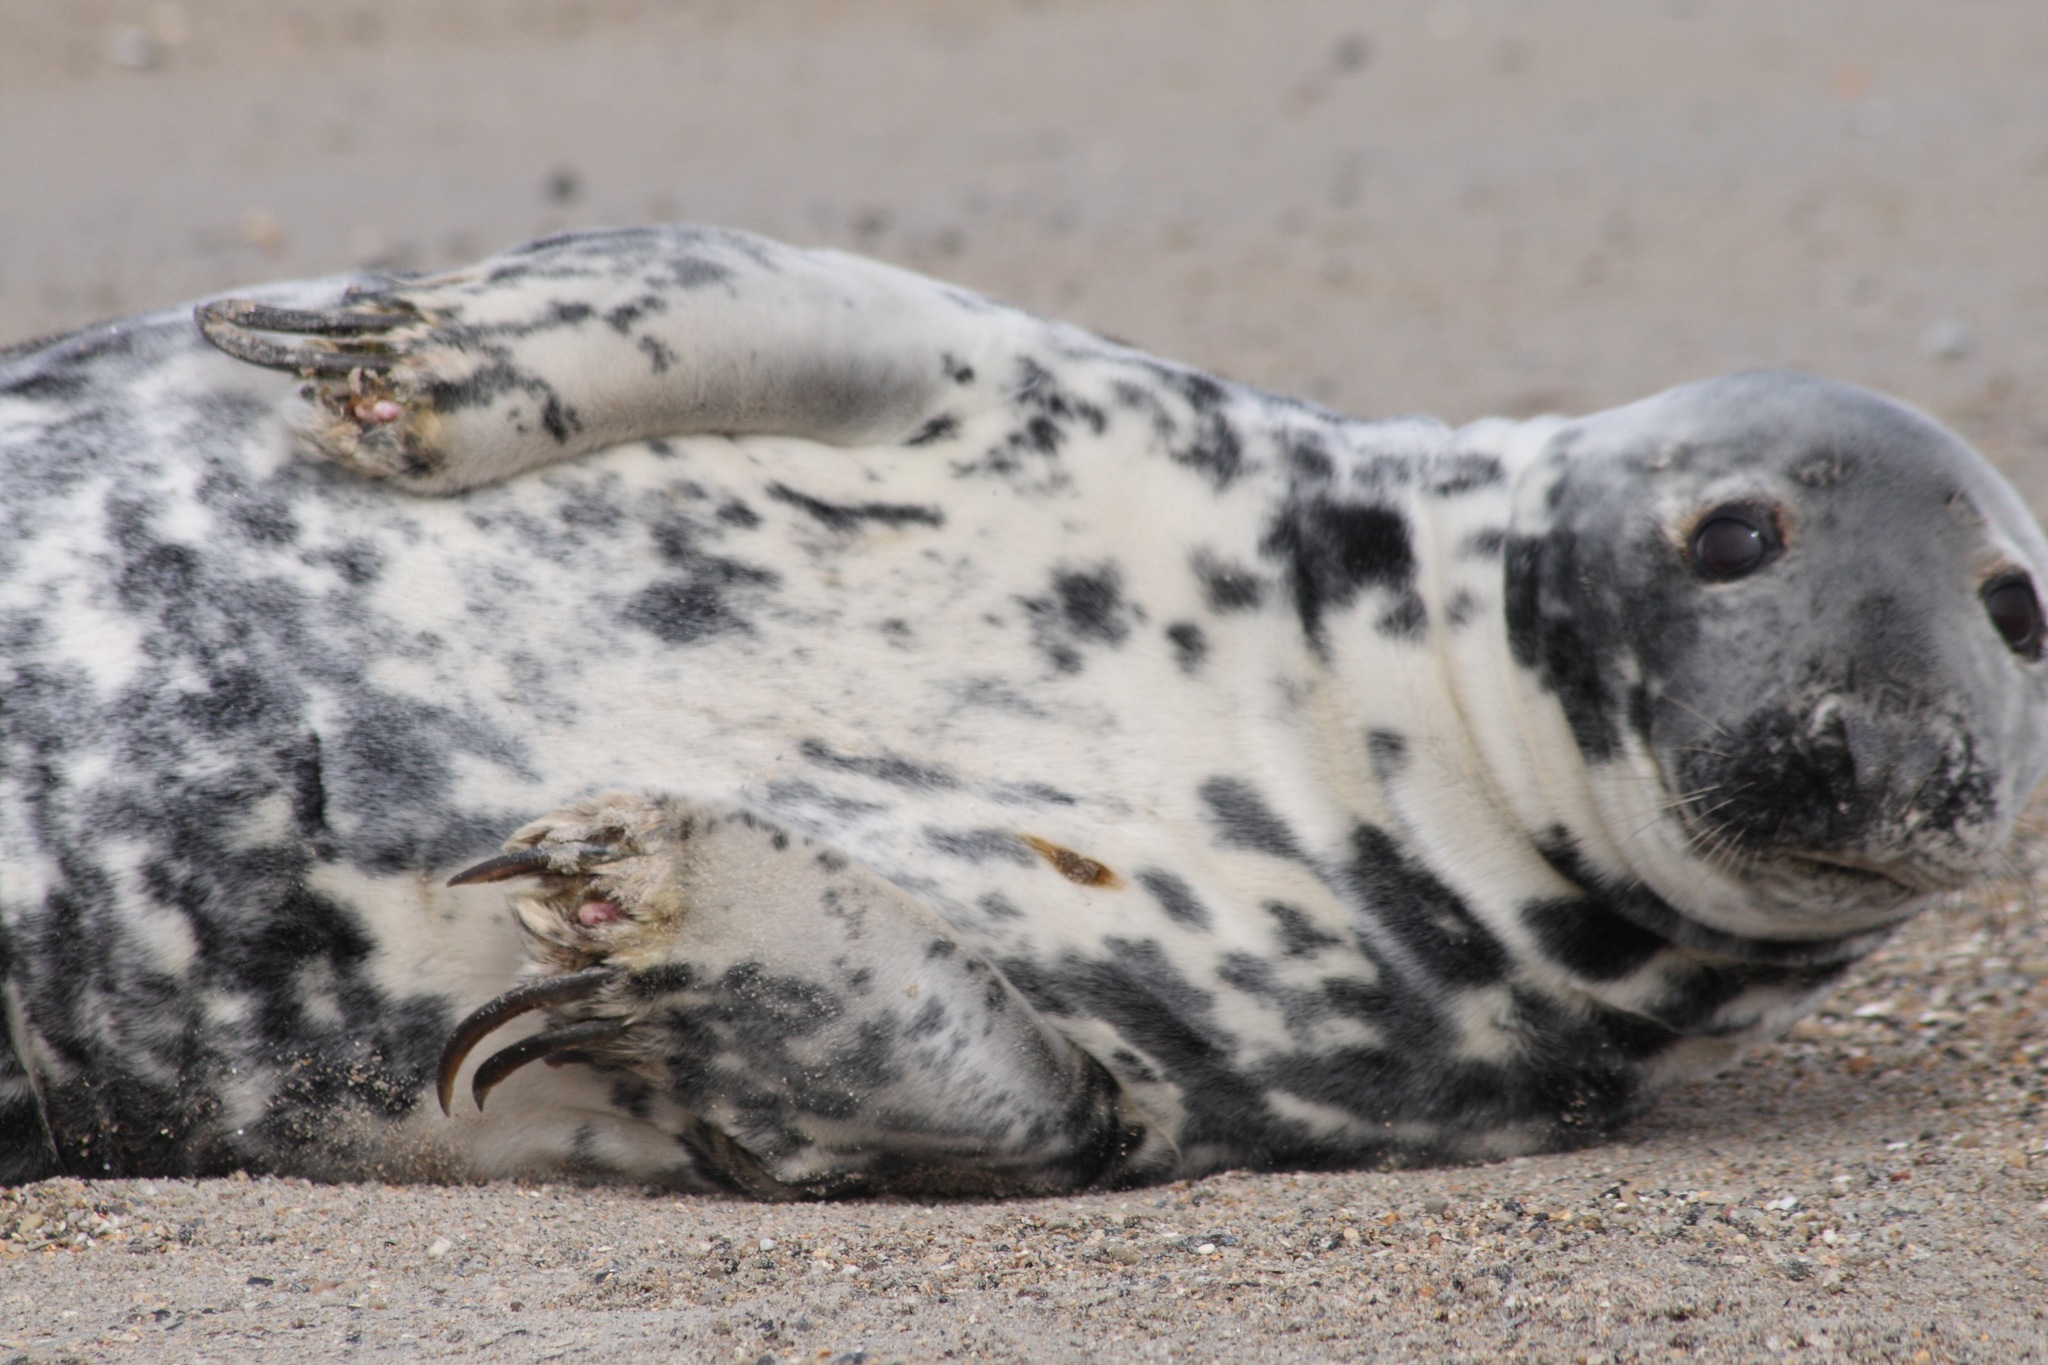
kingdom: Animalia
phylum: Chordata
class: Mammalia
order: Carnivora
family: Phocidae
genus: Halichoerus
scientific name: Halichoerus grypus
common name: Grey seal
